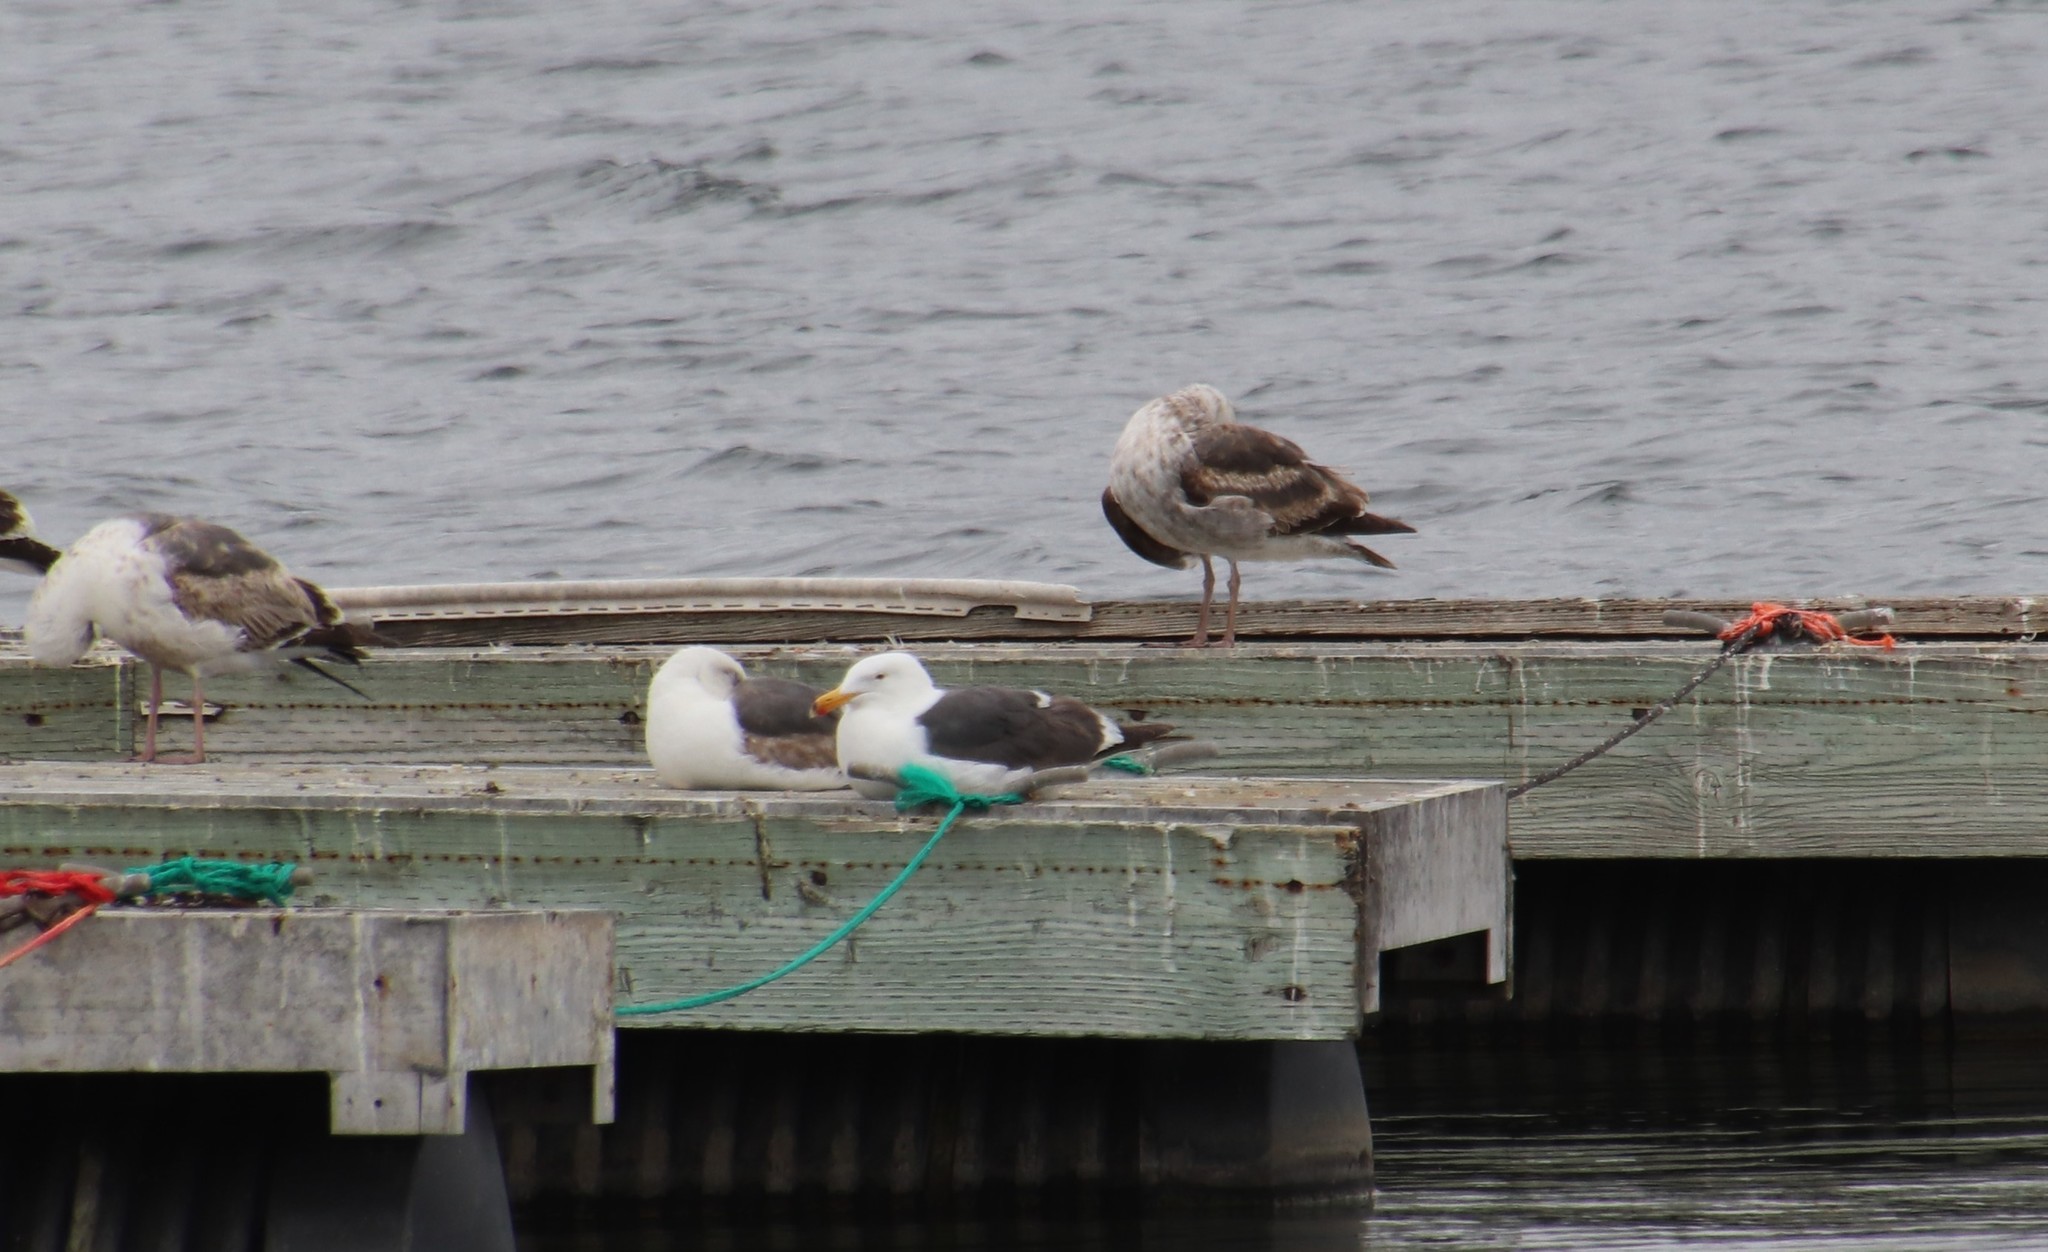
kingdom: Animalia
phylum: Chordata
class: Aves
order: Charadriiformes
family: Laridae
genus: Larus
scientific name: Larus occidentalis
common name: Western gull
